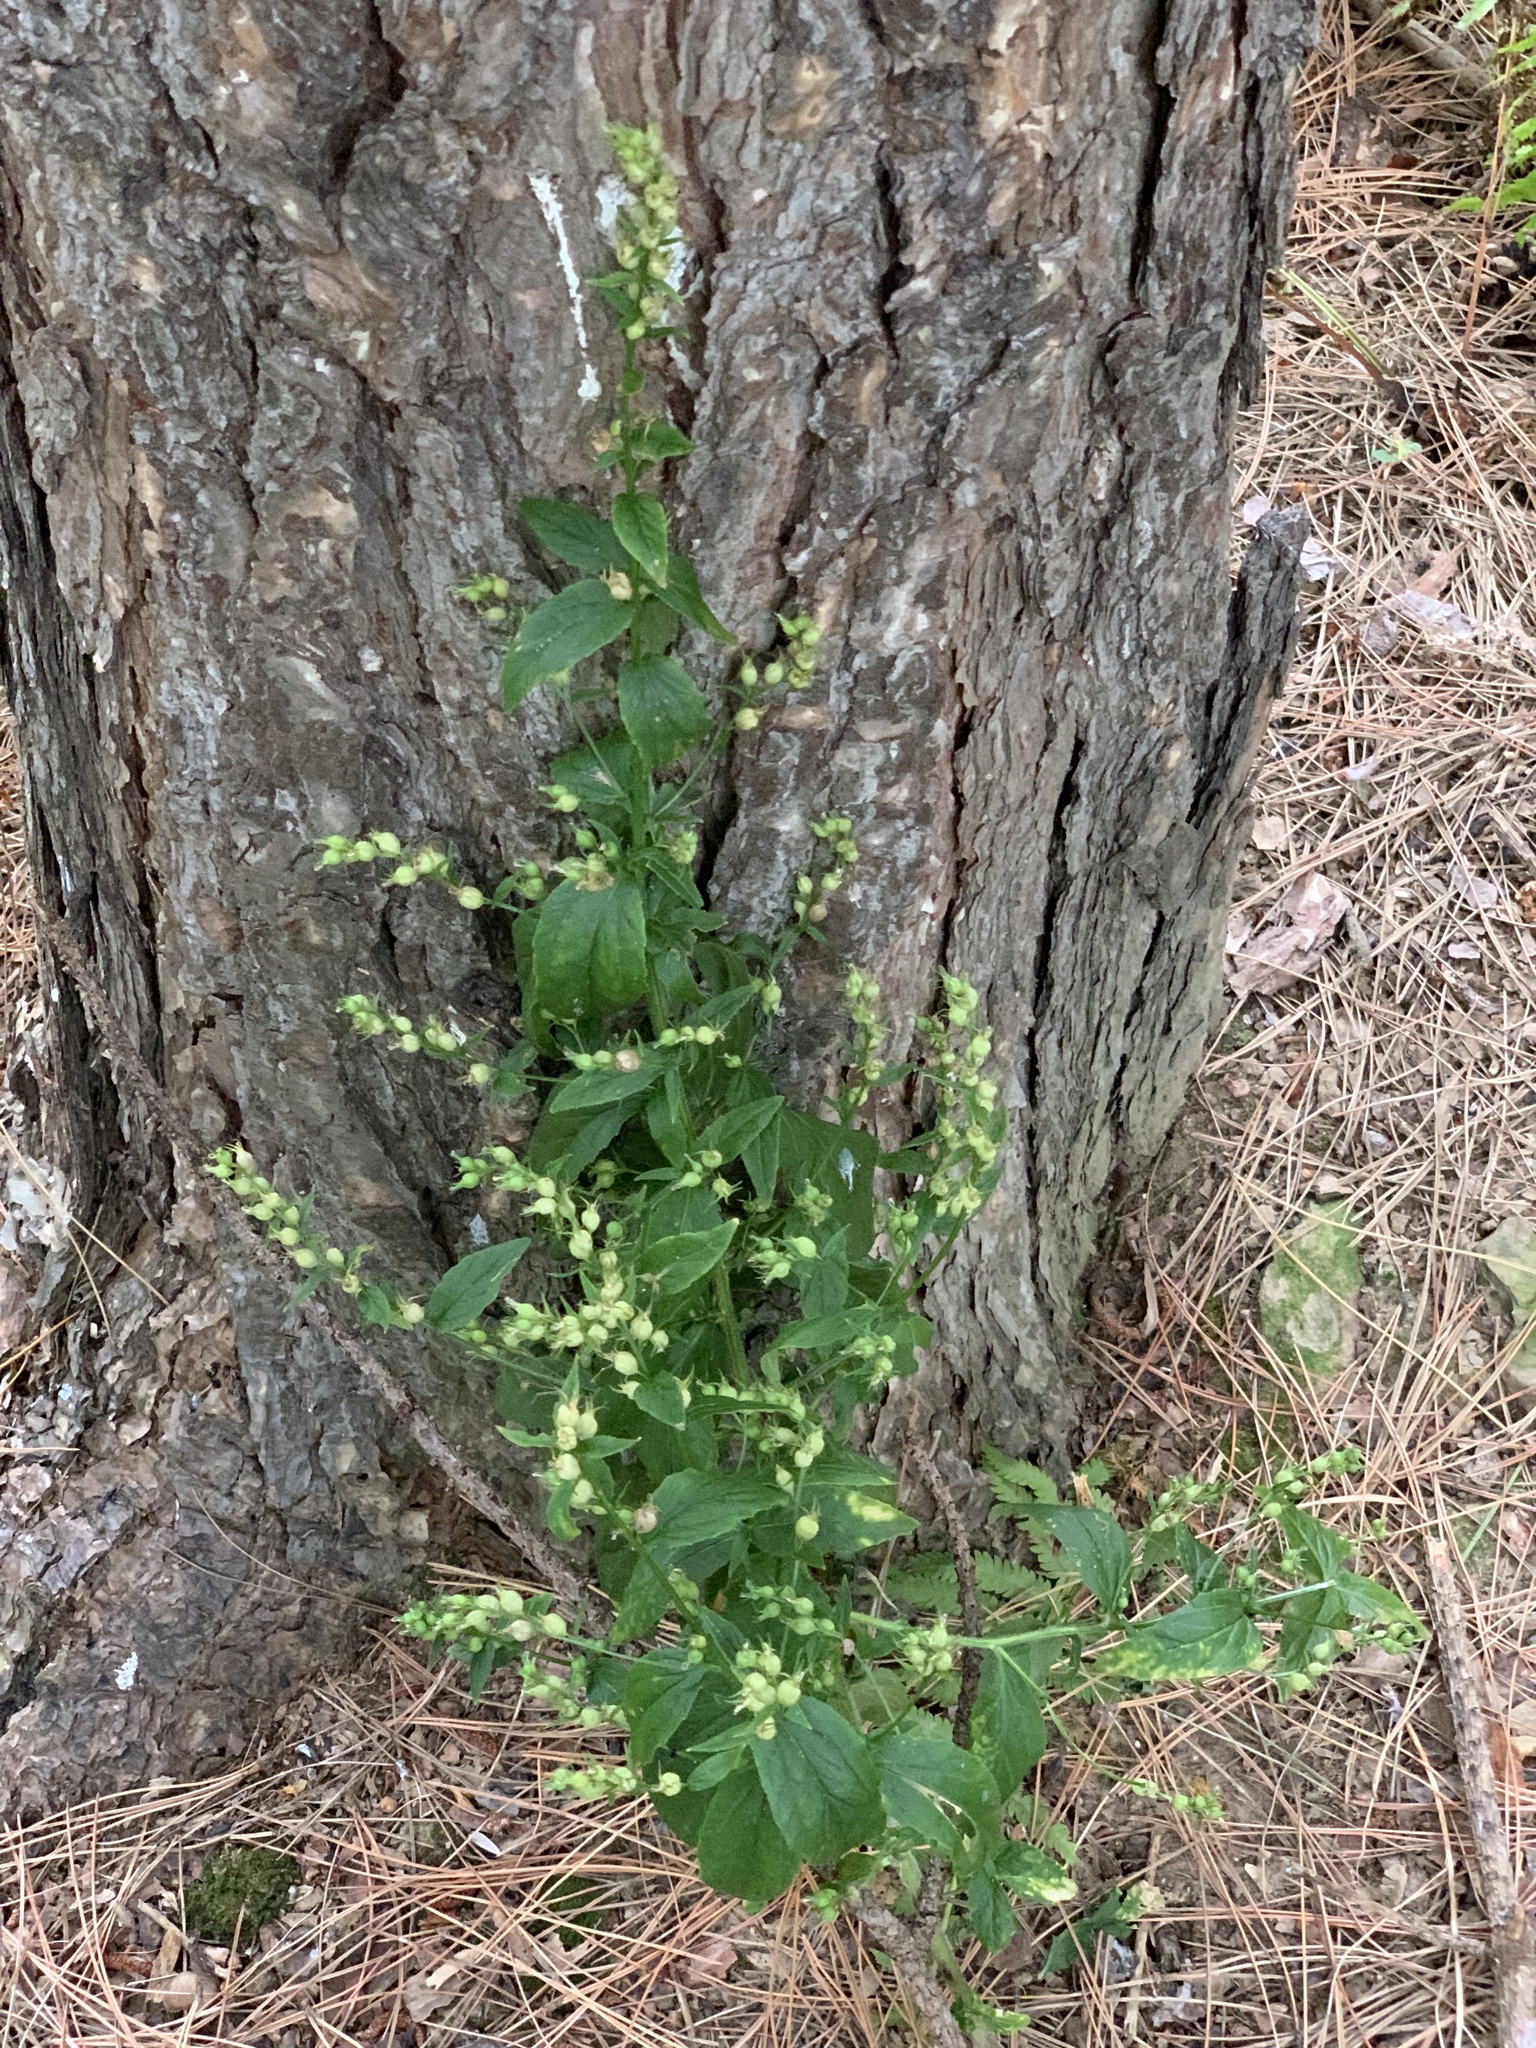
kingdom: Plantae
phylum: Tracheophyta
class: Magnoliopsida
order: Asterales
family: Campanulaceae
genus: Lobelia
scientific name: Lobelia inflata
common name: Indian tobacco
